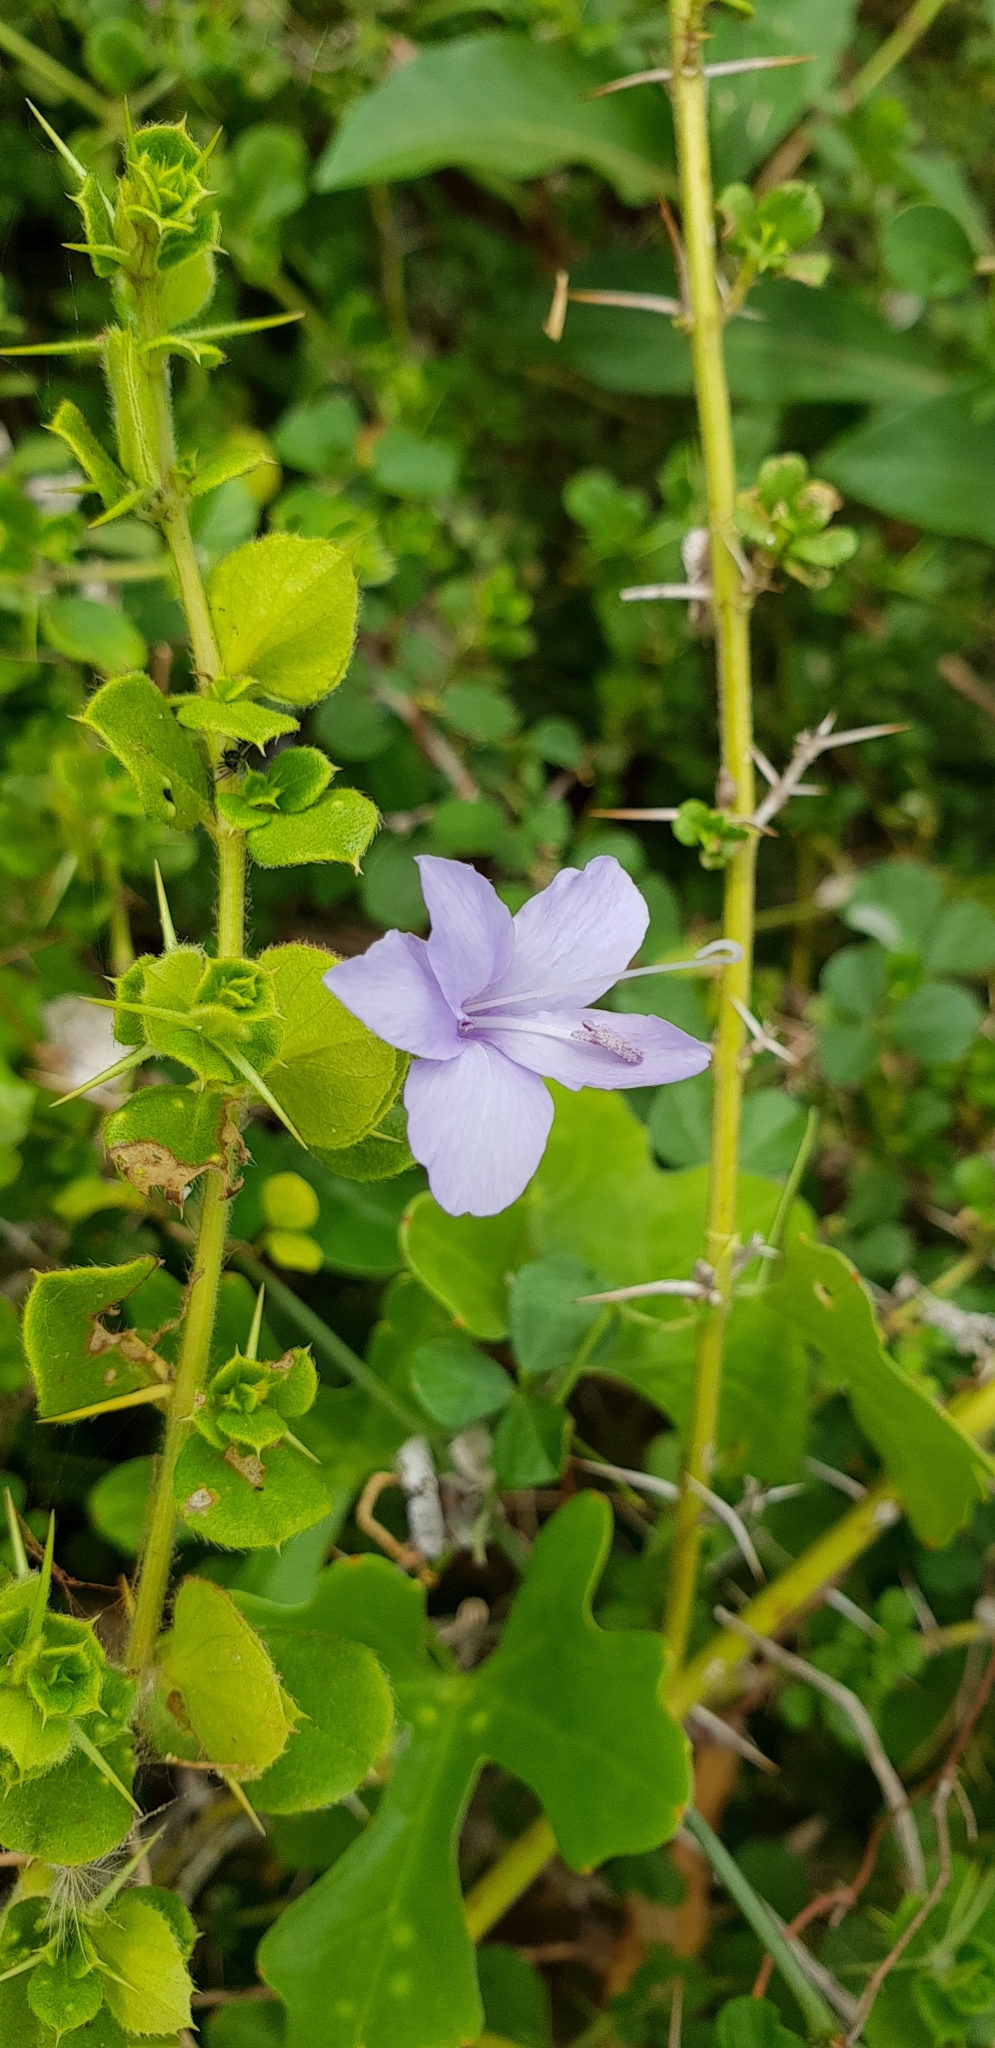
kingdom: Plantae
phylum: Tracheophyta
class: Magnoliopsida
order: Lamiales
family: Acanthaceae
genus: Barleria
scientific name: Barleria buxifolia
